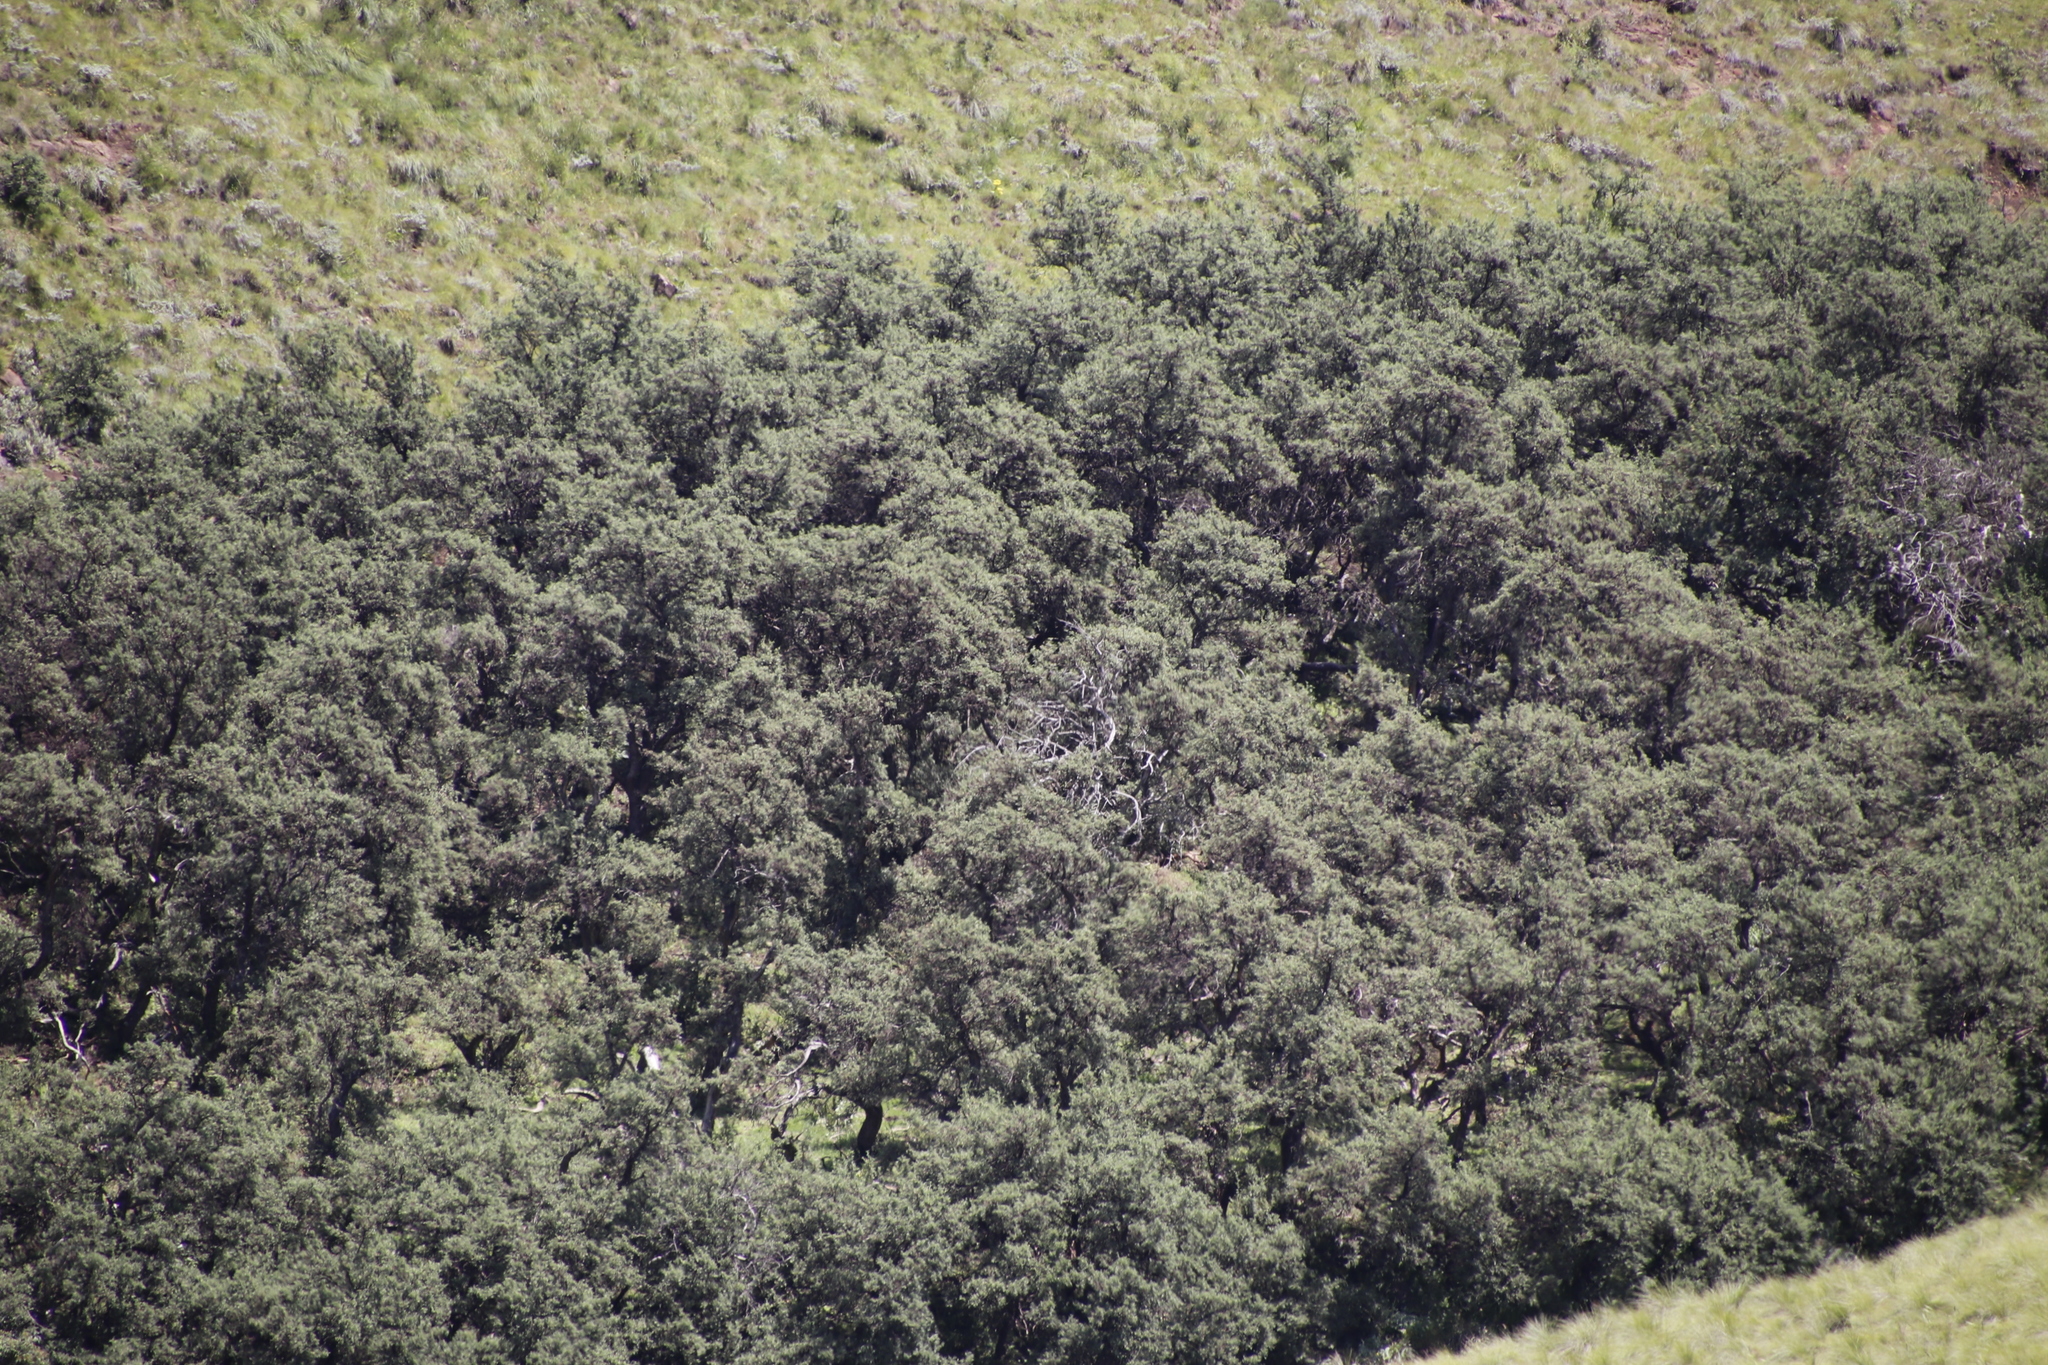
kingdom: Plantae
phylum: Tracheophyta
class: Magnoliopsida
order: Rosales
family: Rosaceae
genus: Leucosidea
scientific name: Leucosidea sericea
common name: Oldwood
